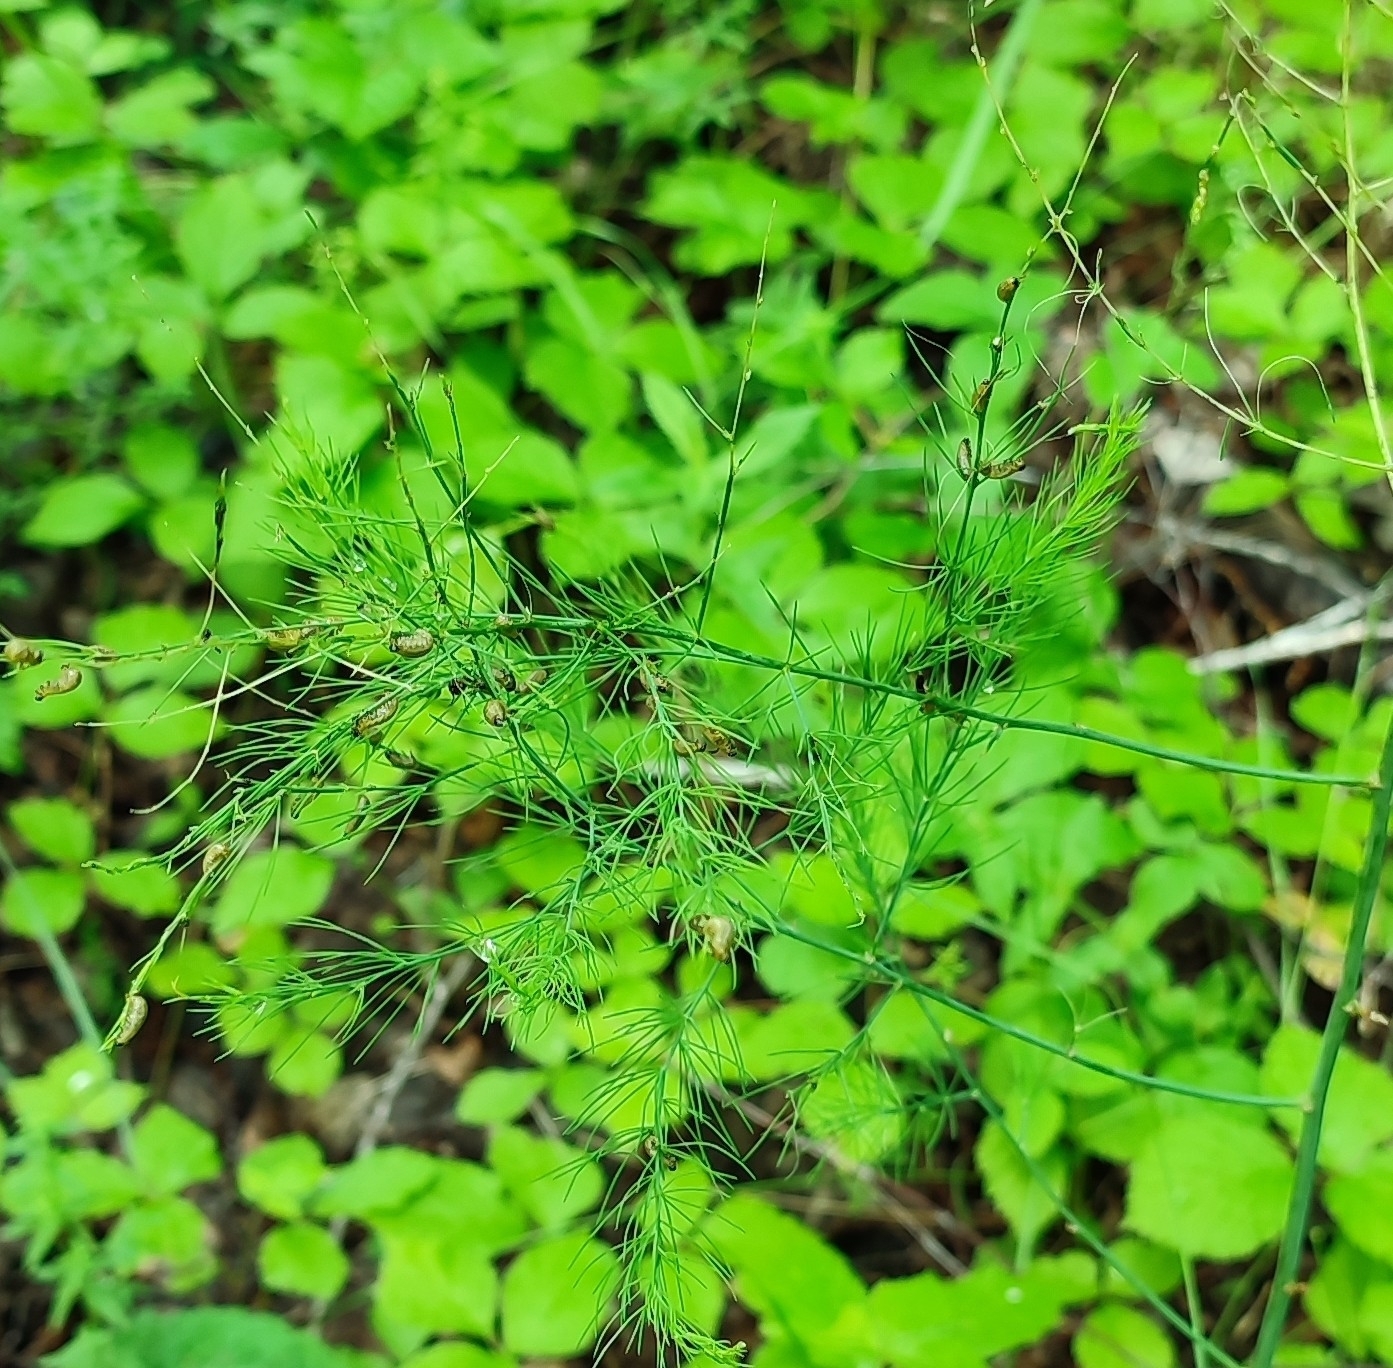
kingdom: Plantae
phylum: Tracheophyta
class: Liliopsida
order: Asparagales
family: Asparagaceae
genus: Asparagus
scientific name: Asparagus officinalis
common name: Garden asparagus
